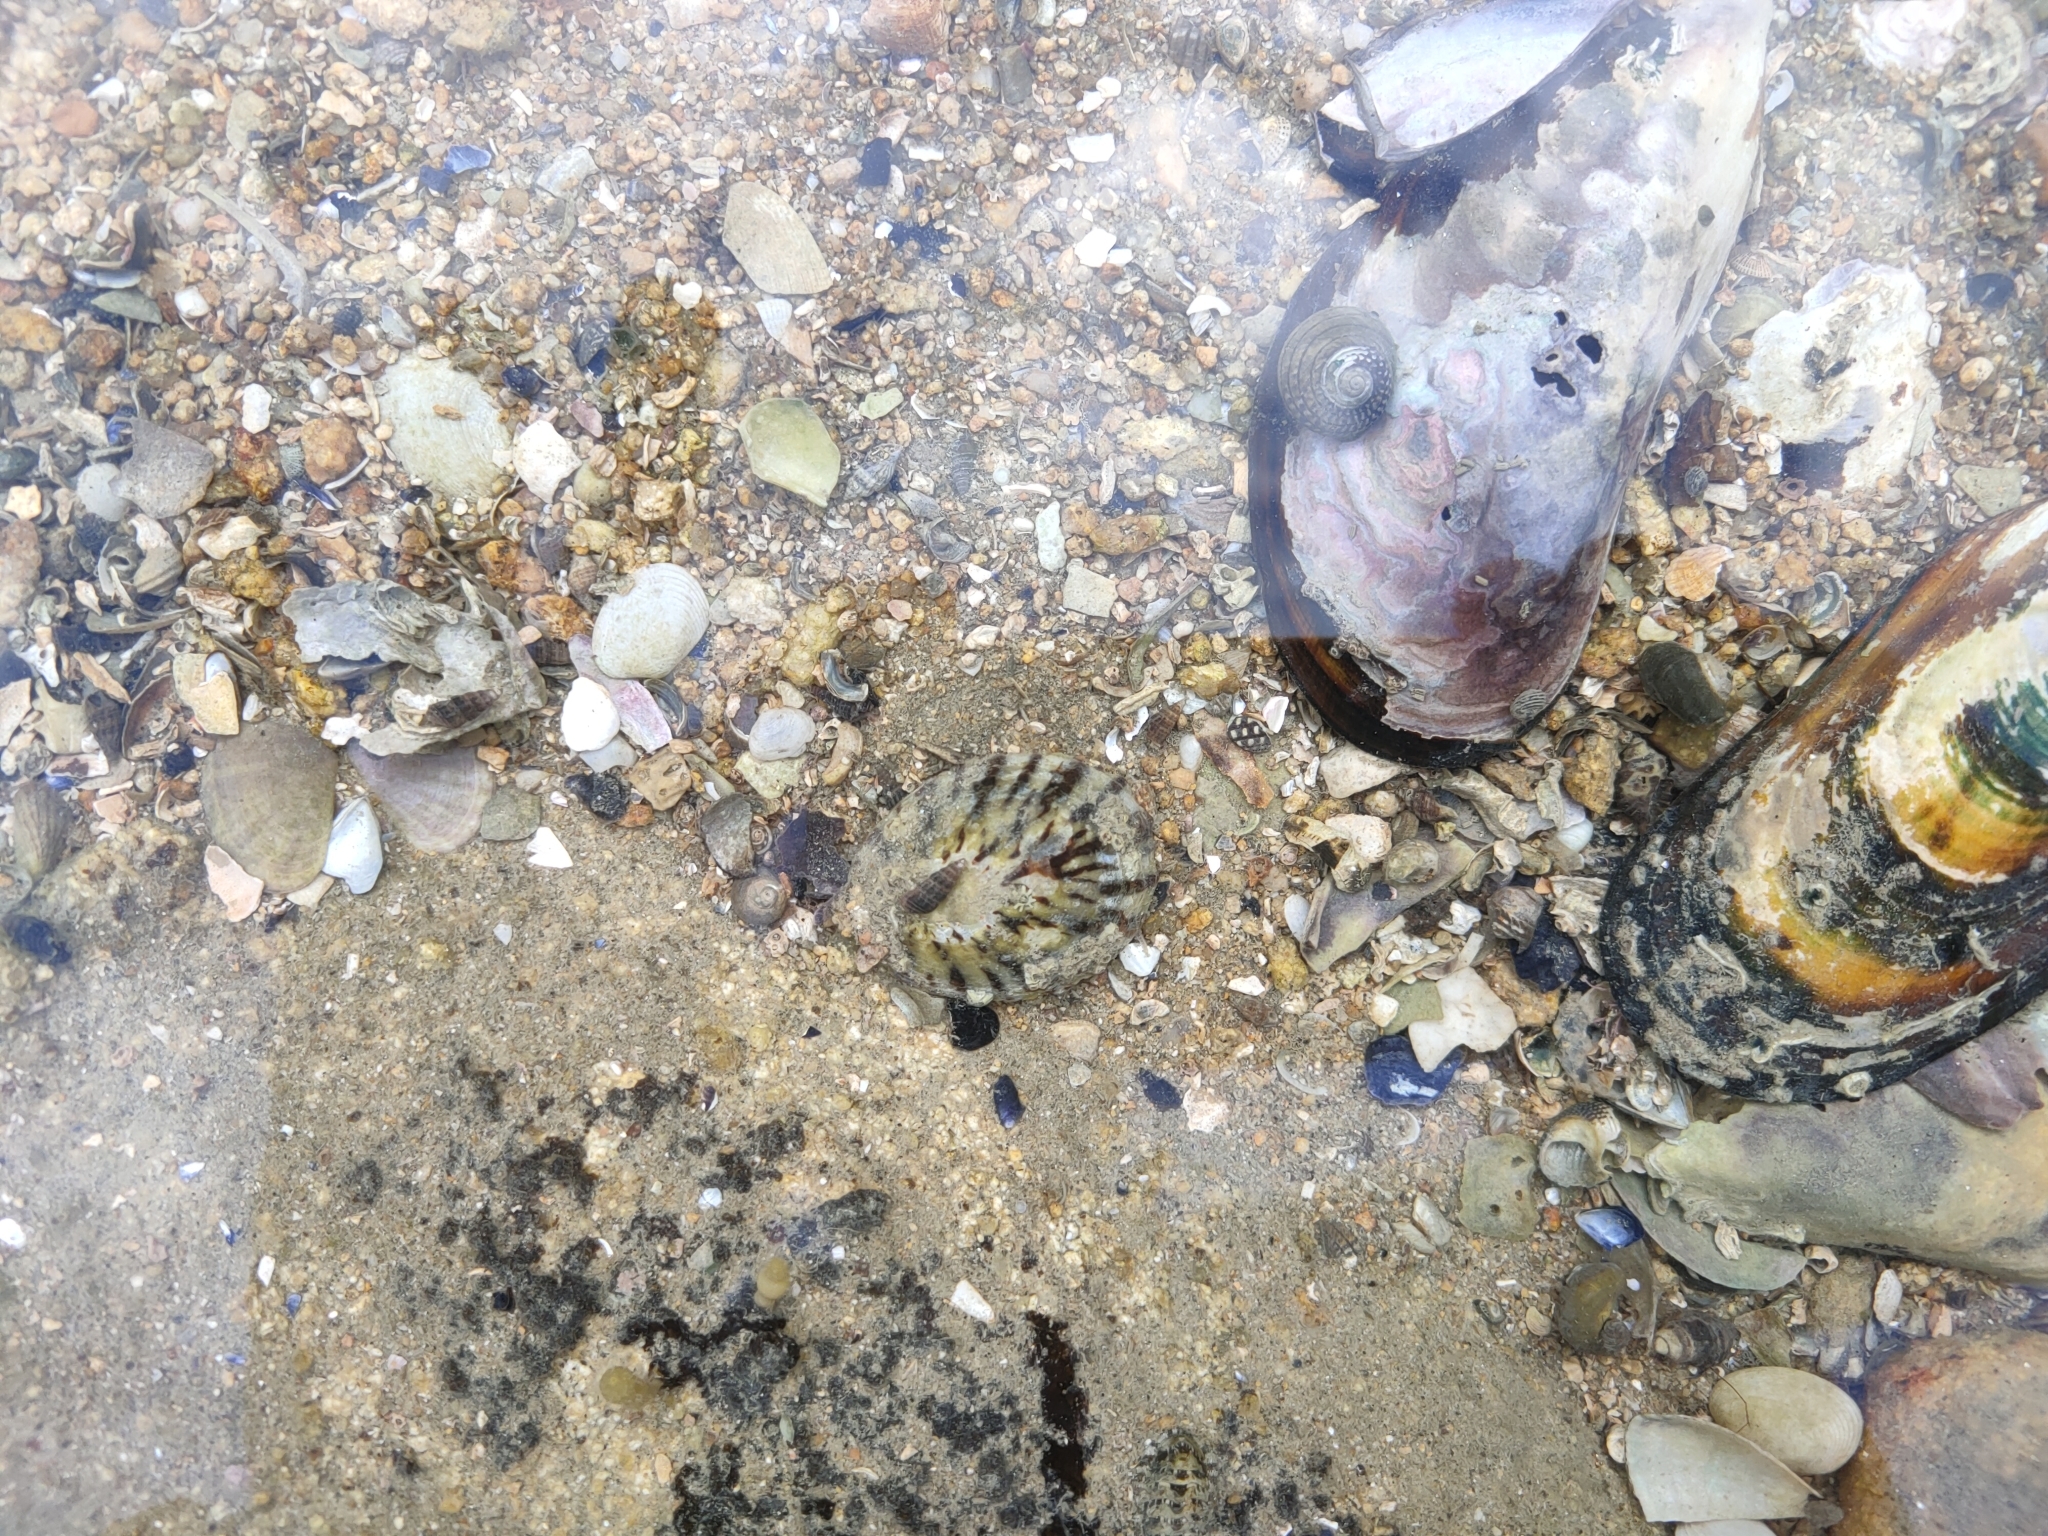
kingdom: Animalia
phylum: Mollusca
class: Gastropoda
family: Nacellidae
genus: Cellana
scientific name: Cellana radians
